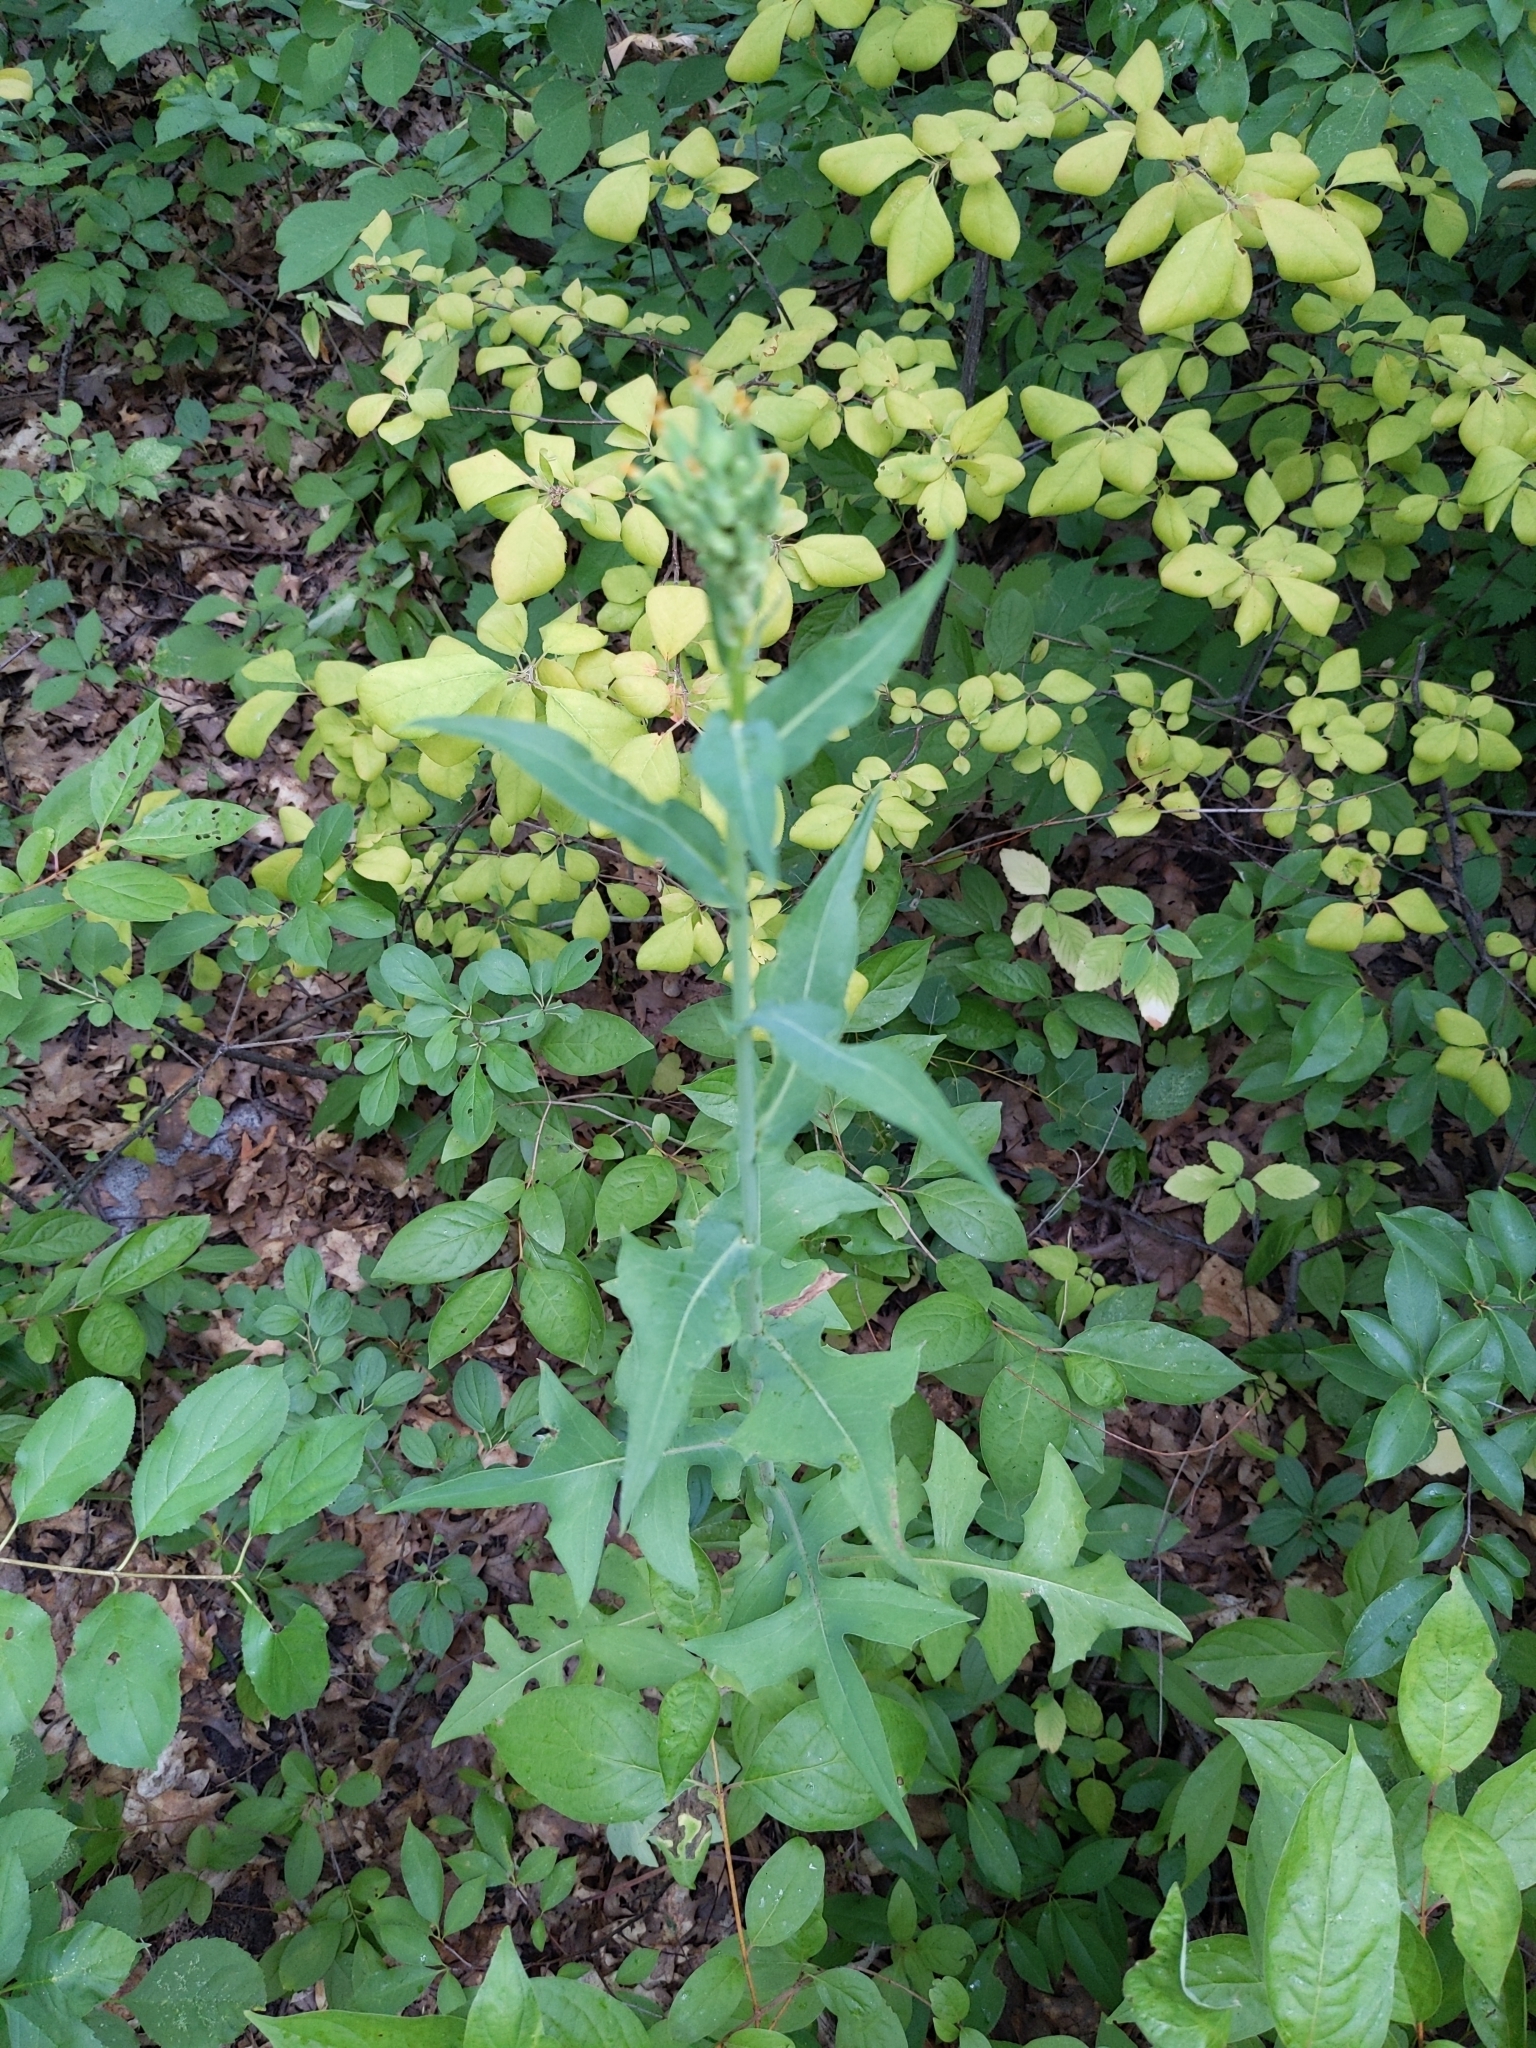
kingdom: Plantae
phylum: Tracheophyta
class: Magnoliopsida
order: Asterales
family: Asteraceae
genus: Lactuca
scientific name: Lactuca canadensis
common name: Canada lettuce
